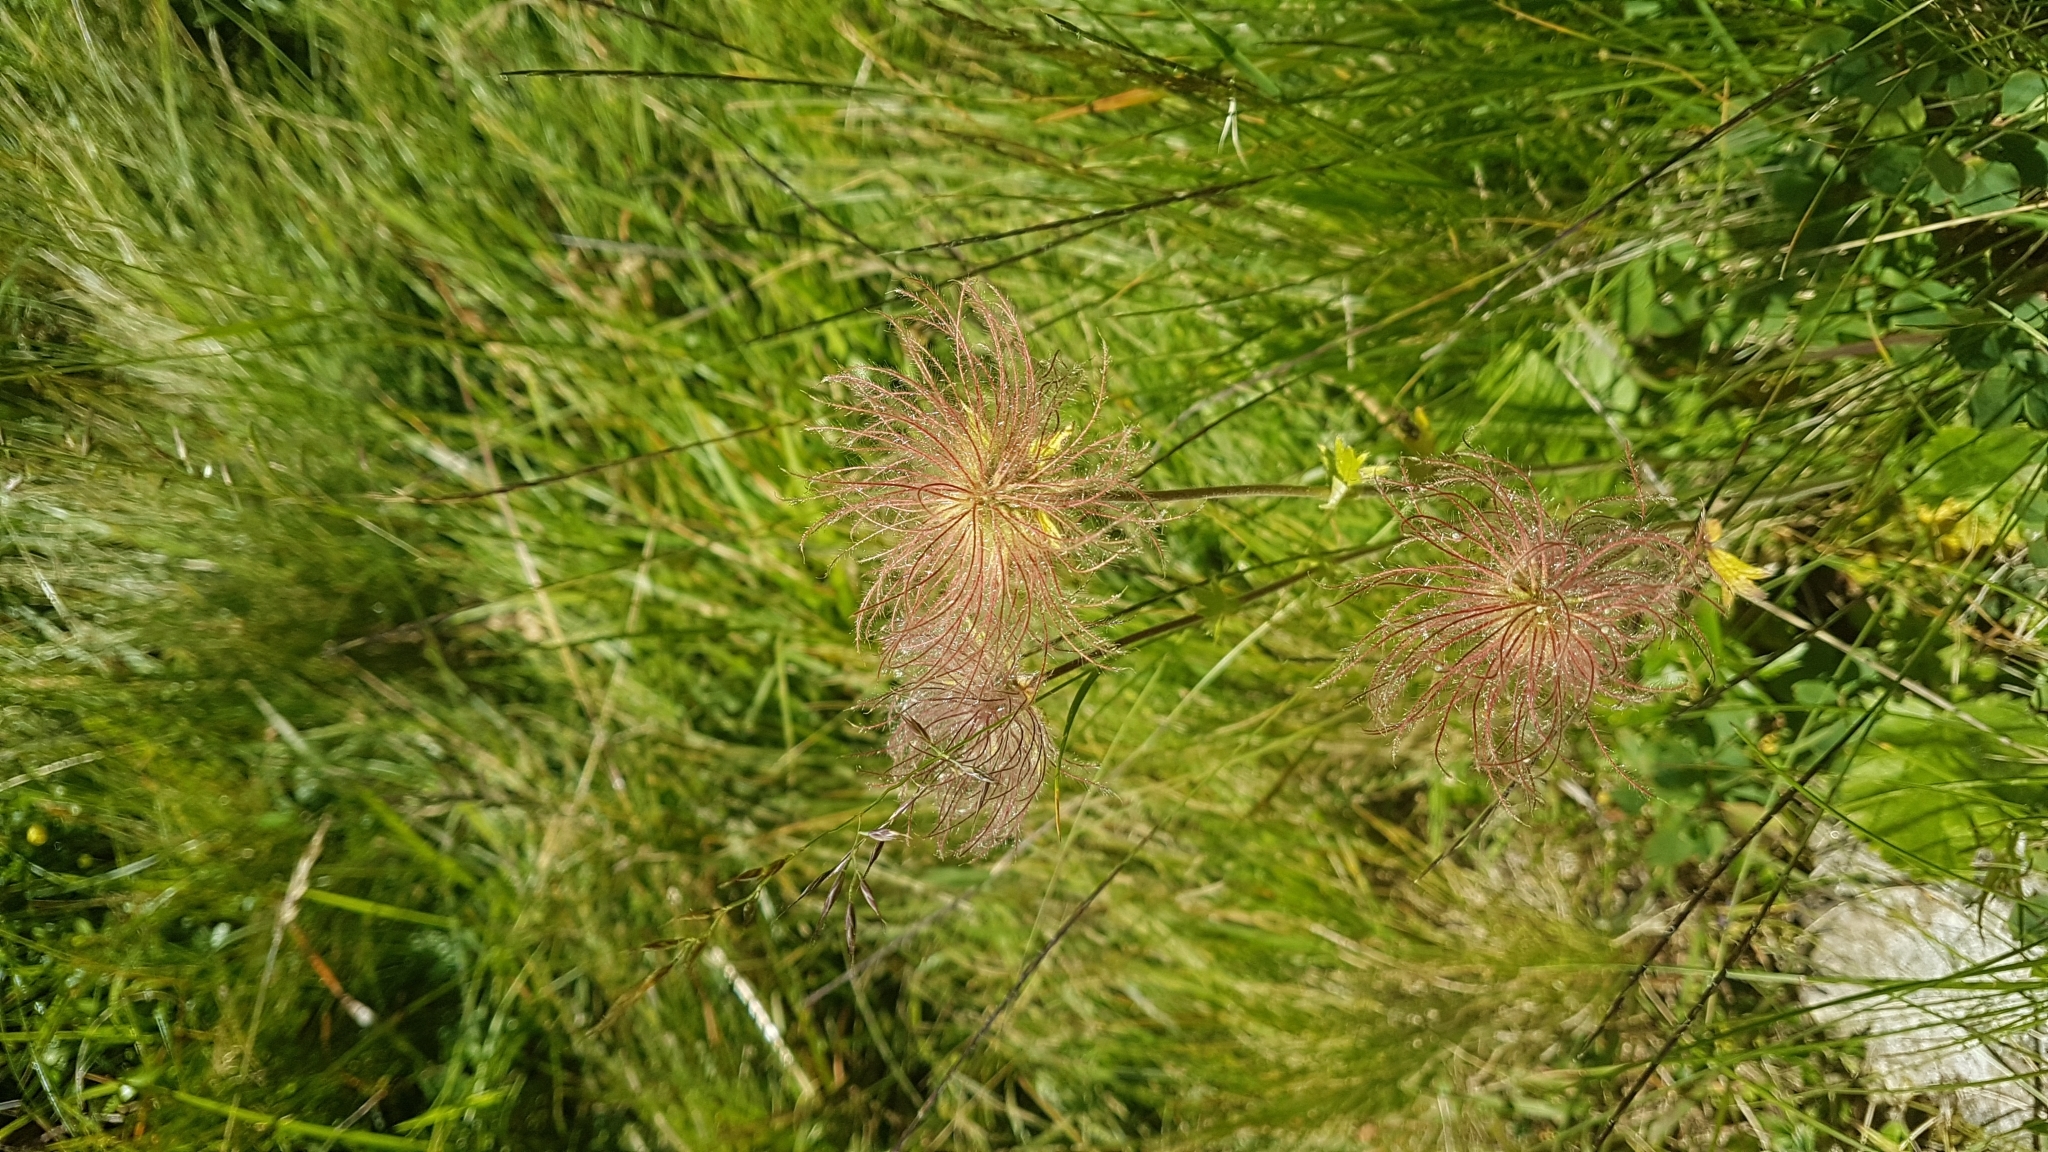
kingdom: Plantae
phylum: Tracheophyta
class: Magnoliopsida
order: Rosales
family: Rosaceae
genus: Geum
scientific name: Geum montanum
